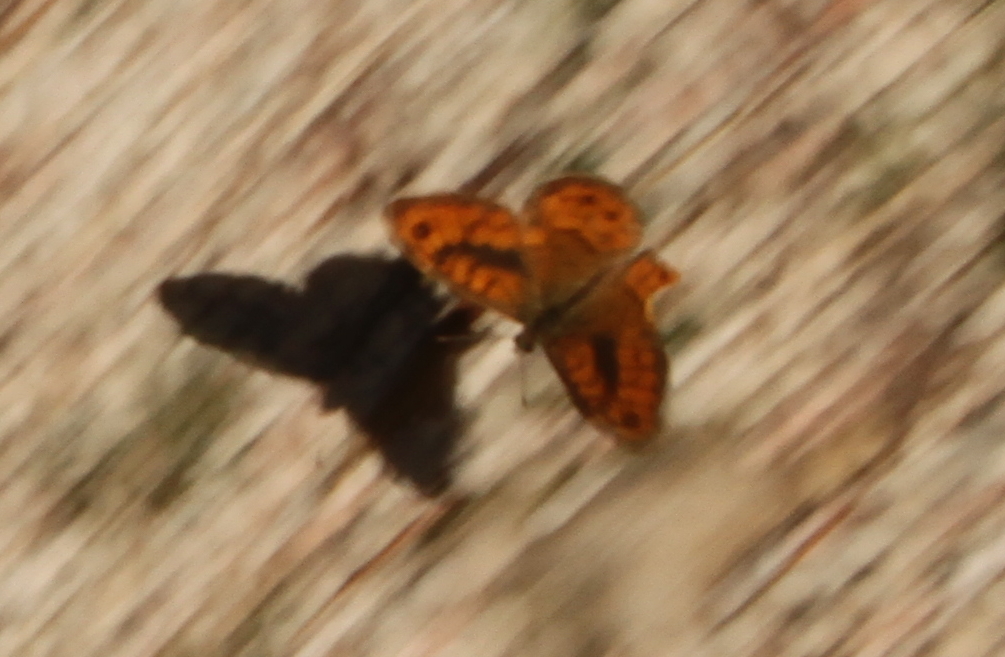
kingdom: Animalia
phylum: Arthropoda
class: Insecta
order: Lepidoptera
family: Nymphalidae
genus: Pararge
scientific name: Pararge Lasiommata megera
